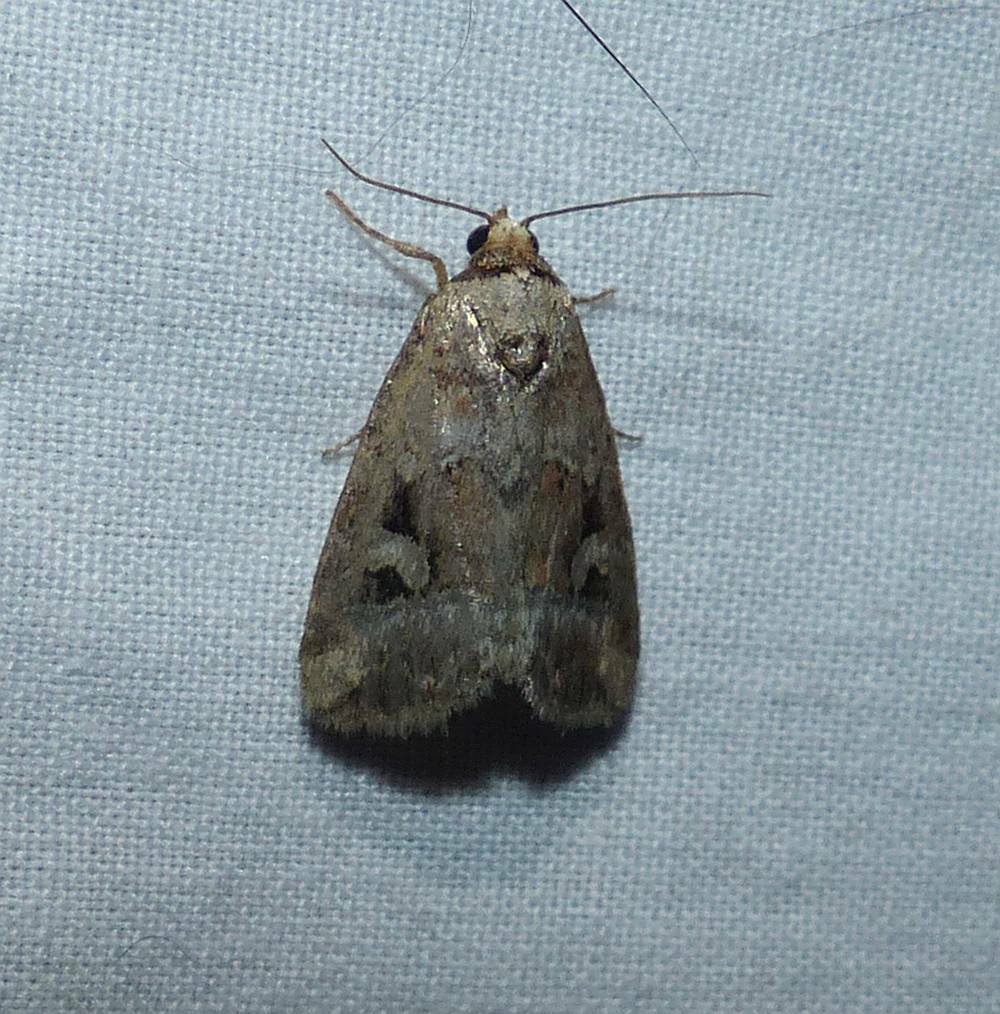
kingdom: Animalia
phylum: Arthropoda
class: Insecta
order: Lepidoptera
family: Noctuidae
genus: Elaphria
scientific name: Elaphria alapallida
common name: Pale-winged midget
